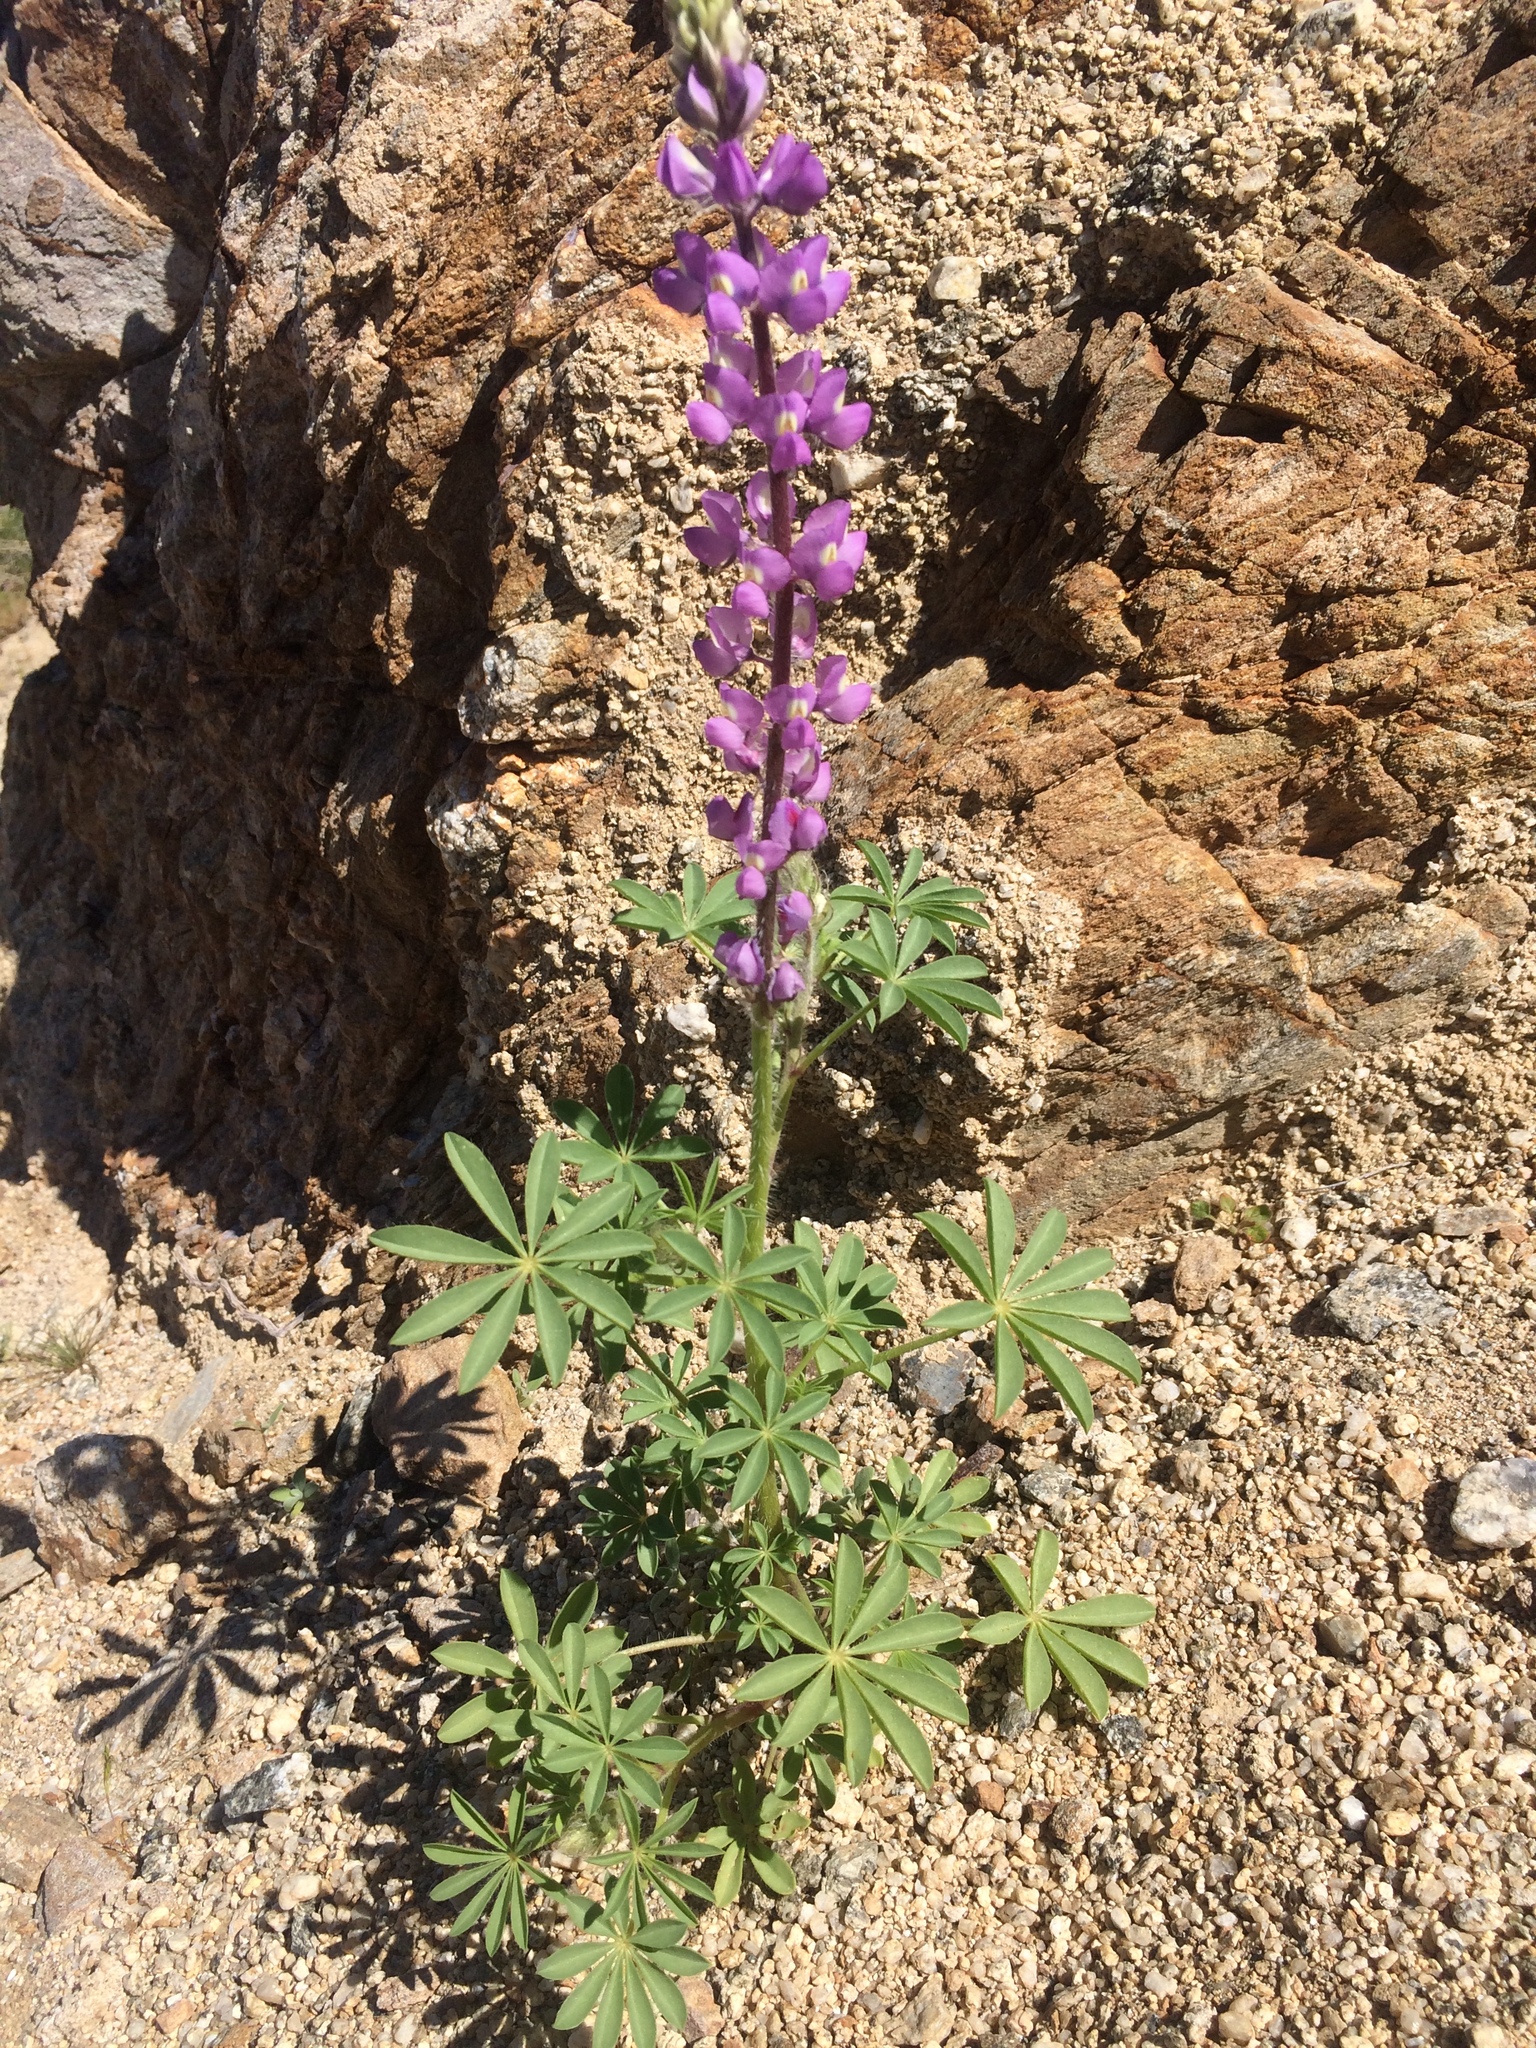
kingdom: Plantae
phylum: Tracheophyta
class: Magnoliopsida
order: Fabales
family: Fabaceae
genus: Lupinus
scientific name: Lupinus arizonicus
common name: Arizona lupine
